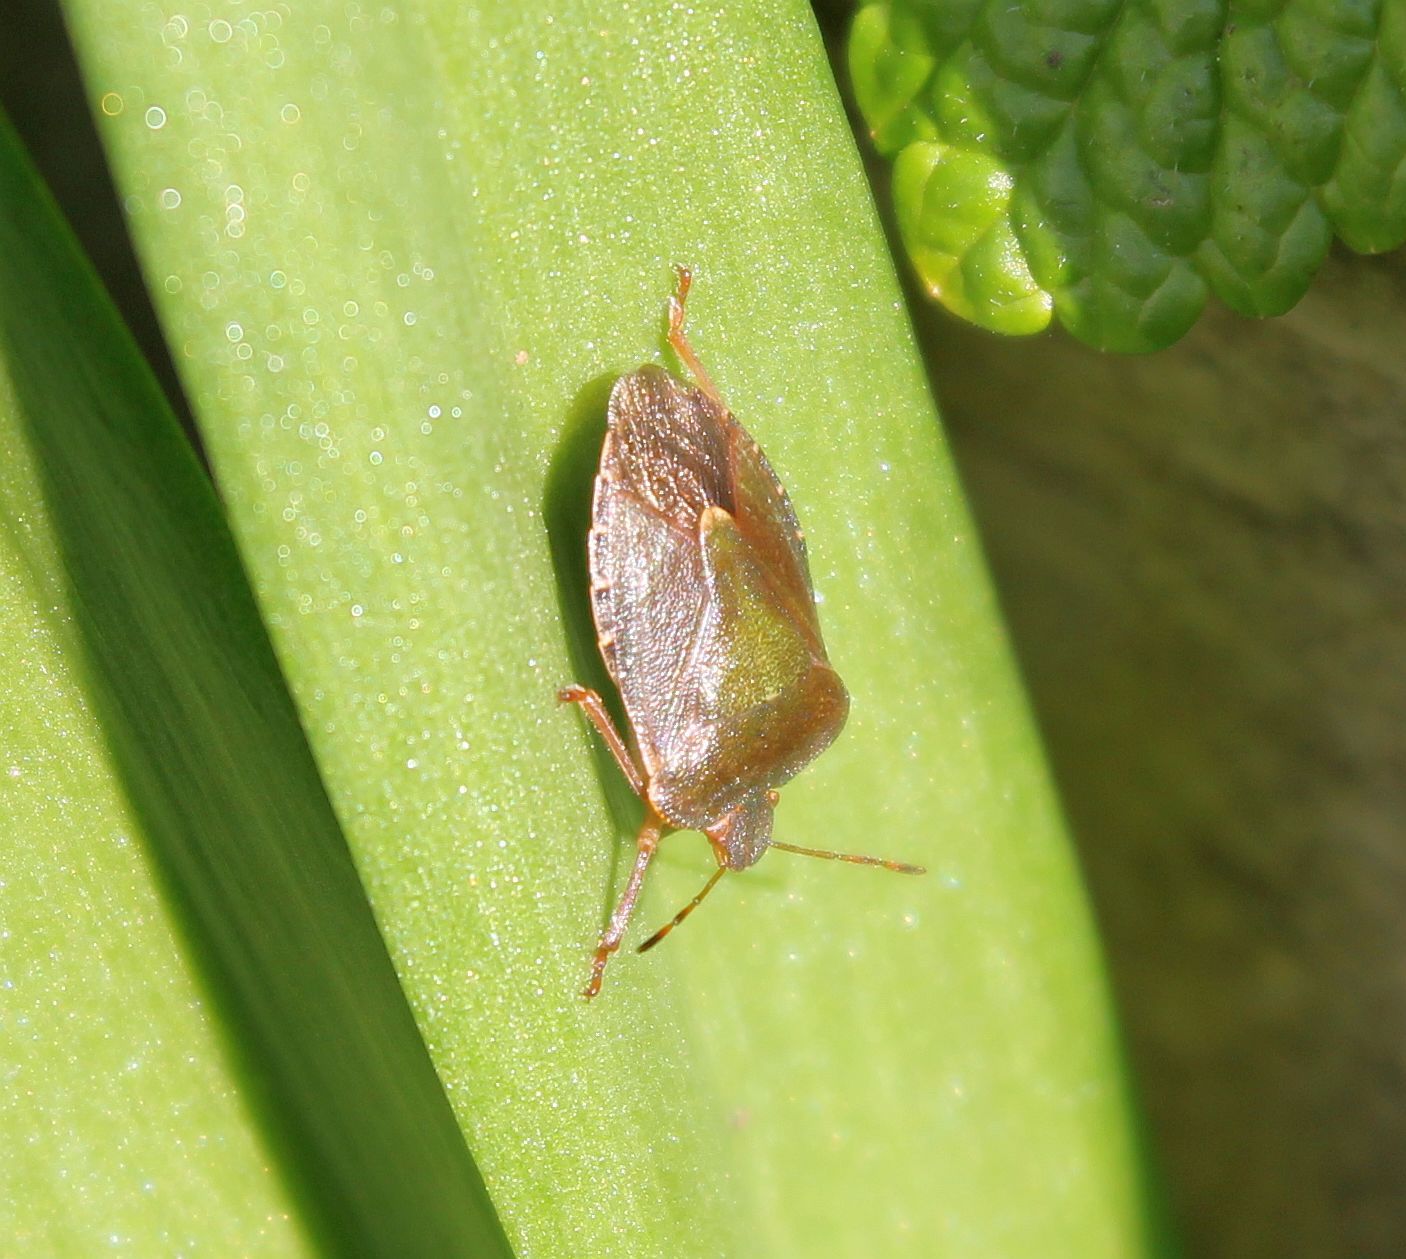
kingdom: Animalia
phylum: Arthropoda
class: Insecta
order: Hemiptera
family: Pentatomidae
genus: Palomena
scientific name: Palomena prasina
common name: Green shieldbug
